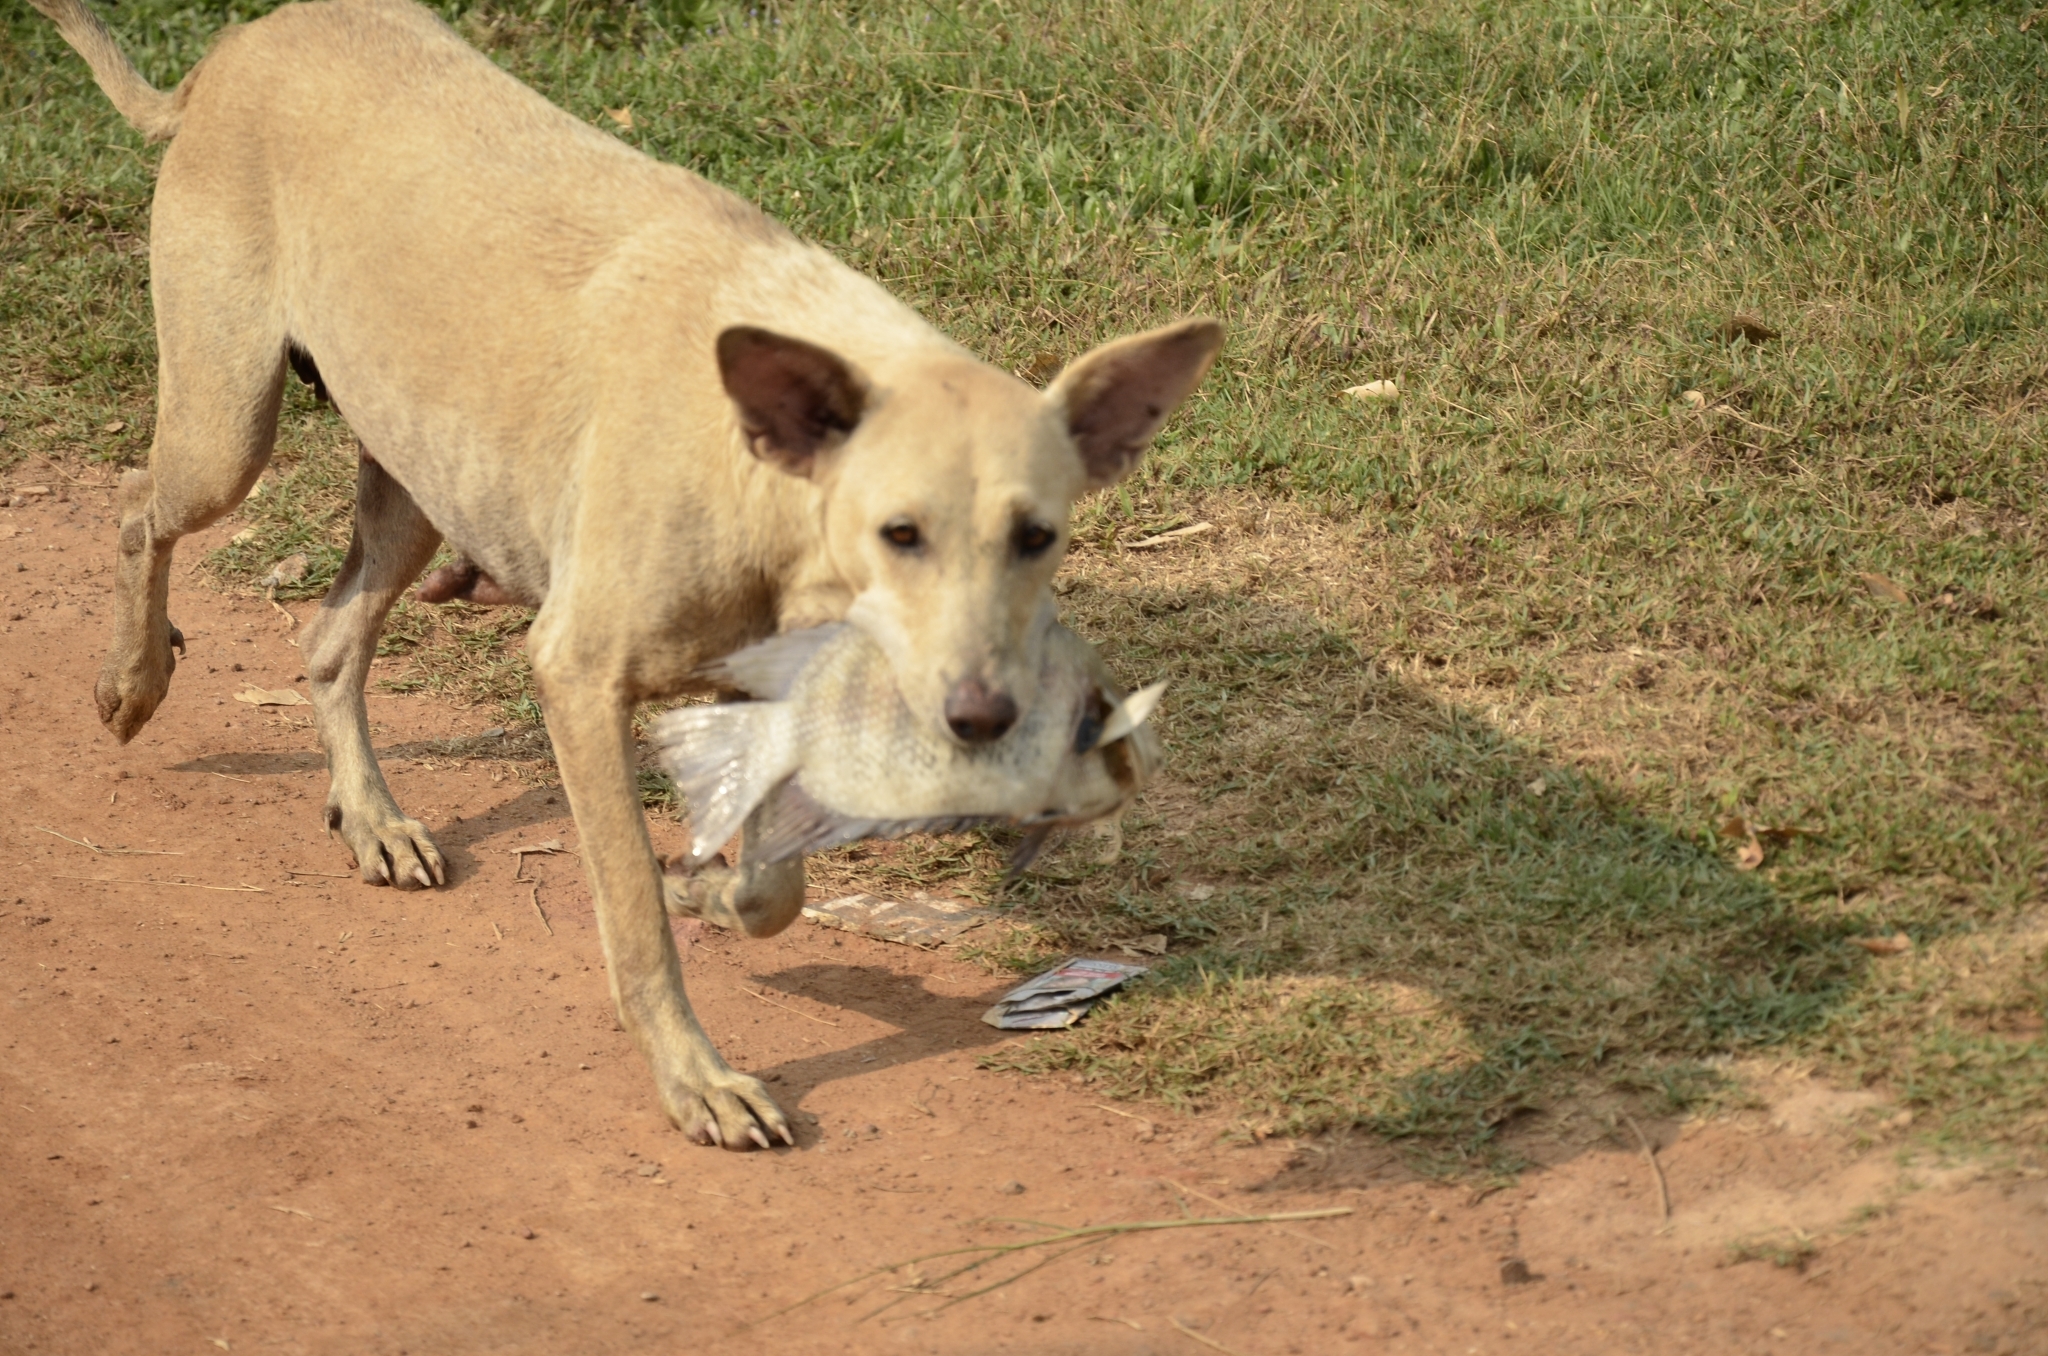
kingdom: Animalia
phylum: Chordata
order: Perciformes
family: Cichlidae
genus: Etroplus
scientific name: Etroplus suratensis
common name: Green chromide
